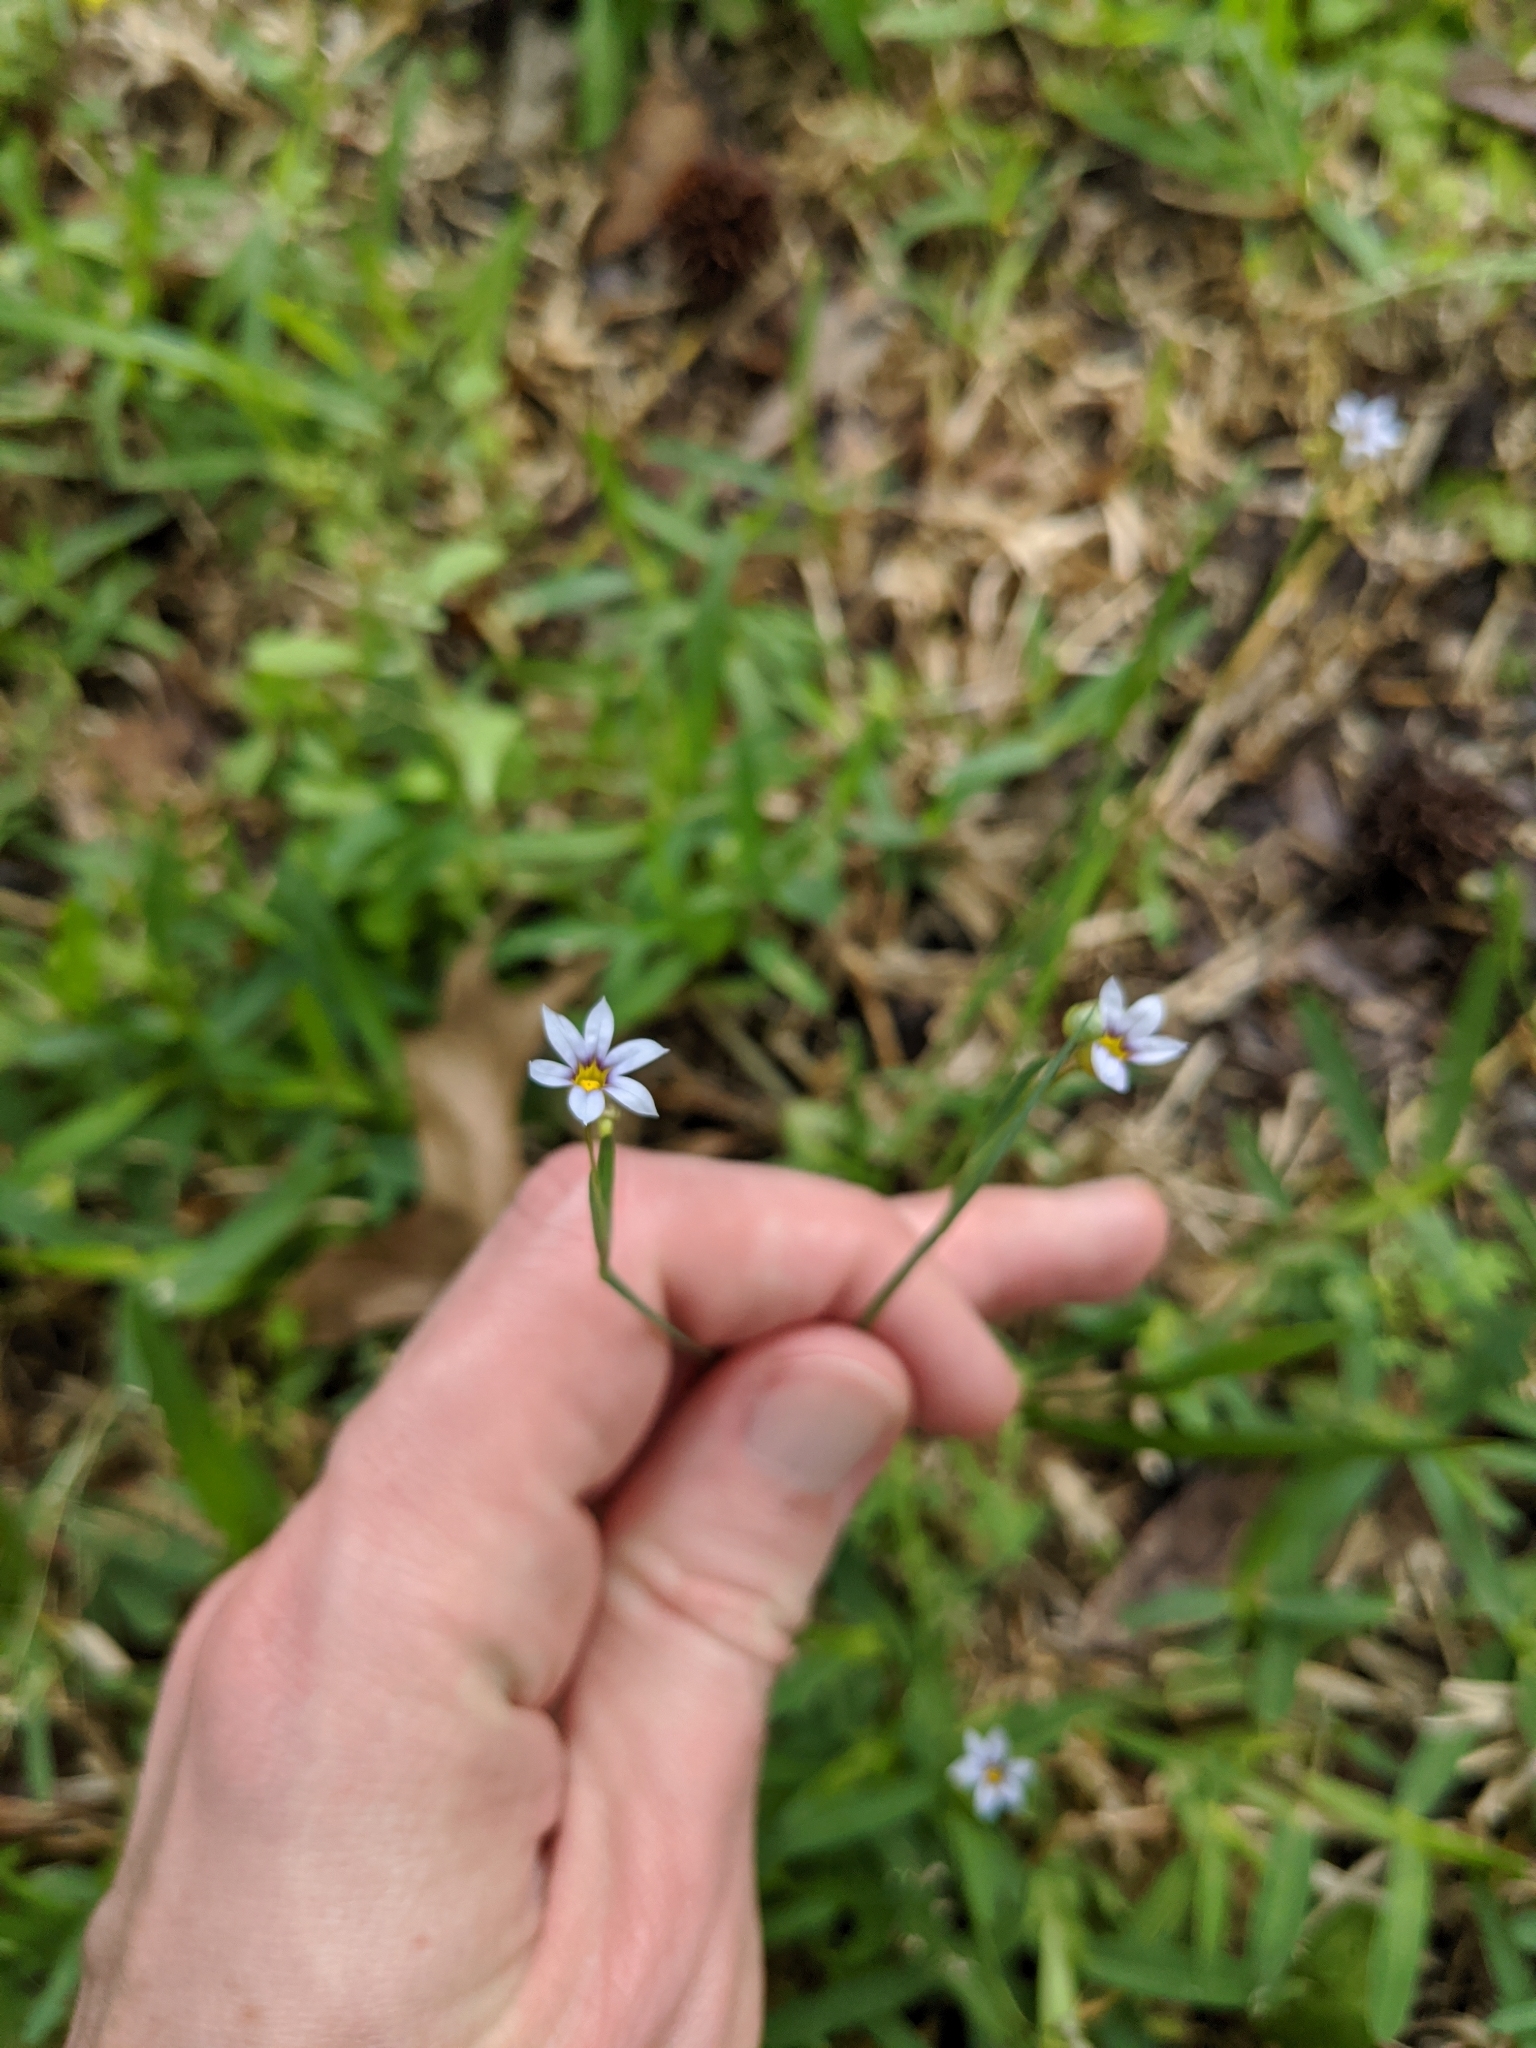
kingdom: Plantae
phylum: Tracheophyta
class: Liliopsida
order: Asparagales
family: Iridaceae
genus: Sisyrinchium
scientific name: Sisyrinchium micranthum
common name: Bermuda pigroot
